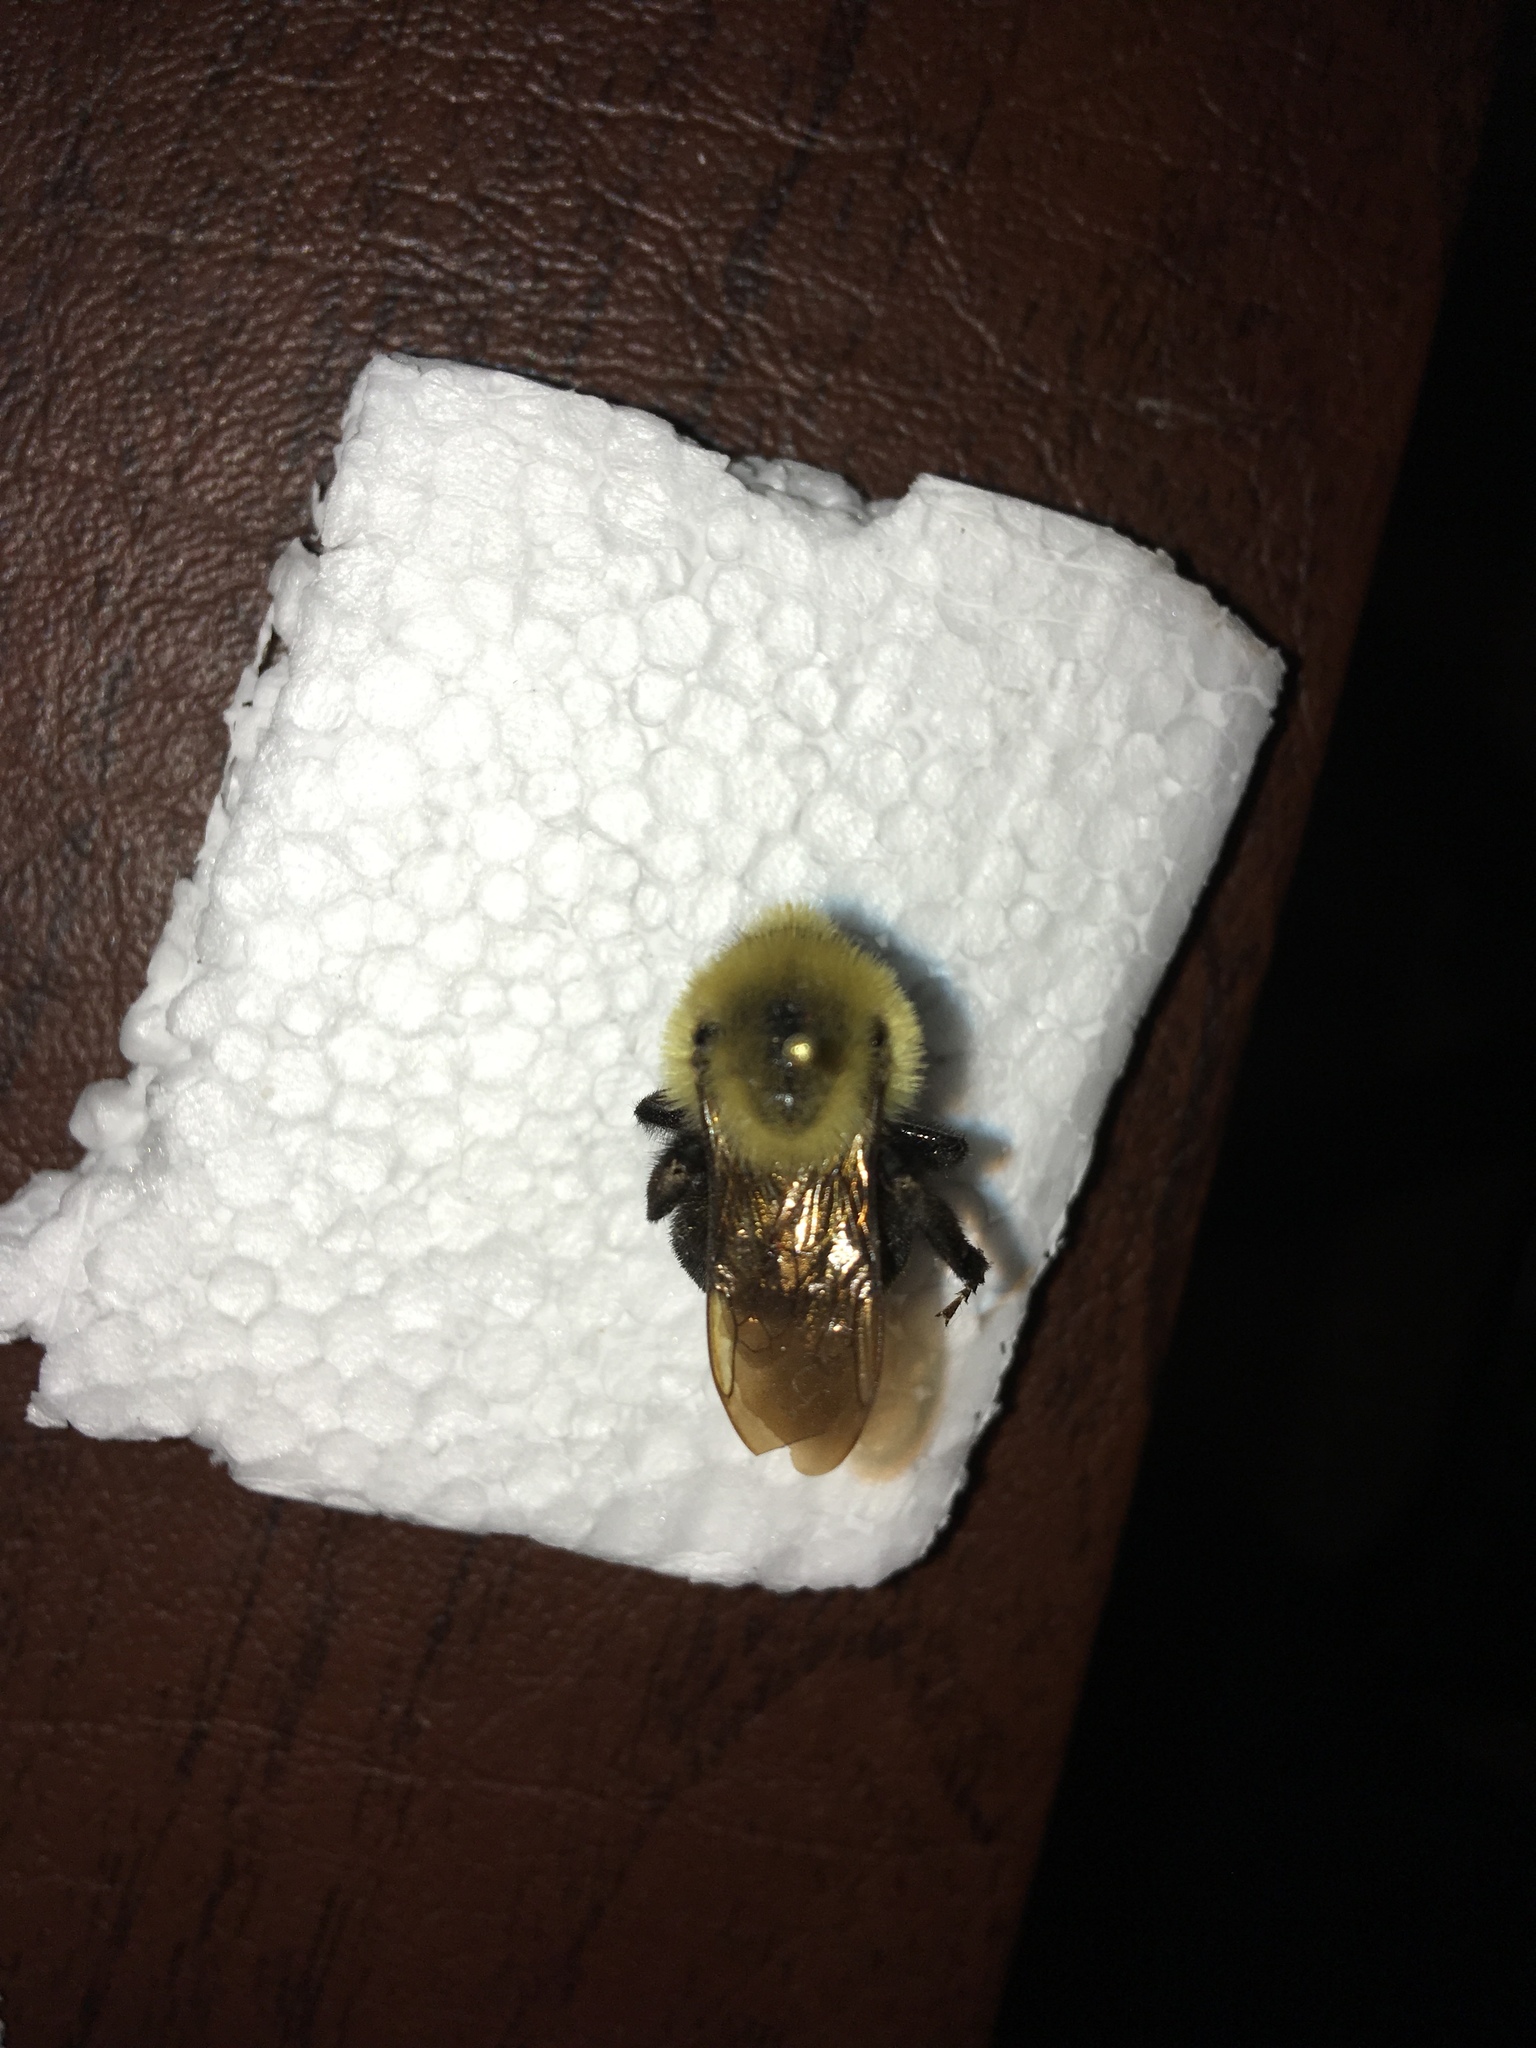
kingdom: Animalia
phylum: Arthropoda
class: Insecta
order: Hymenoptera
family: Apidae
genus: Bombus
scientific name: Bombus citrinus
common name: Lemon cuckoo bumble bee
